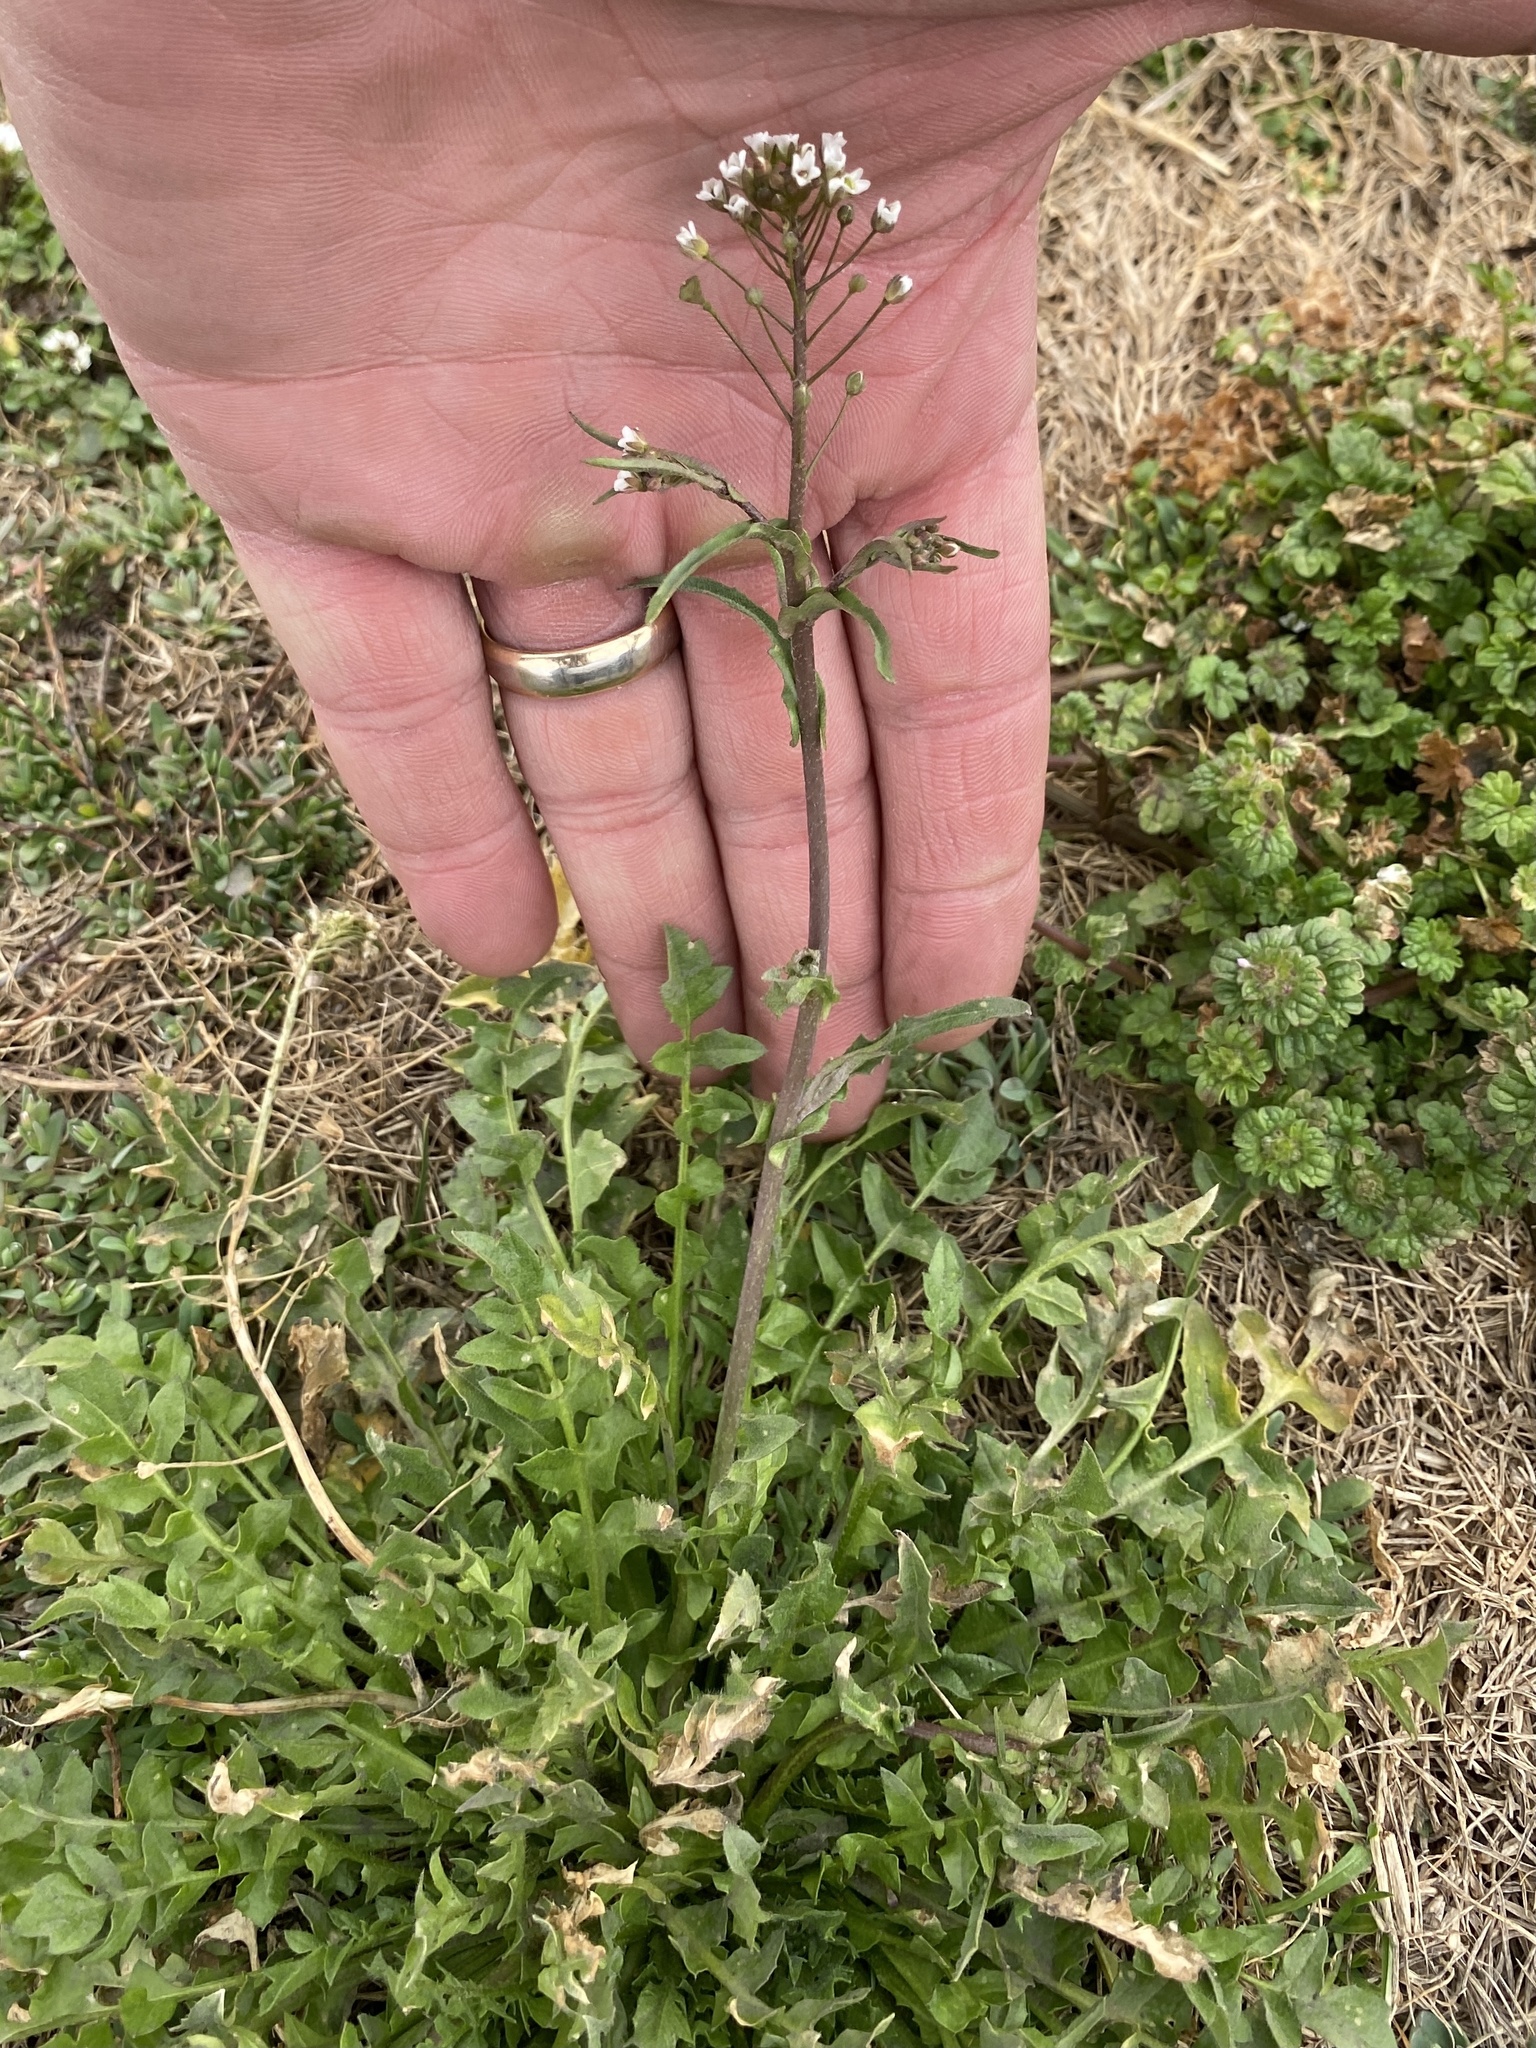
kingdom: Plantae
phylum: Tracheophyta
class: Magnoliopsida
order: Brassicales
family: Brassicaceae
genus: Capsella
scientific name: Capsella bursa-pastoris
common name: Shepherd's purse
